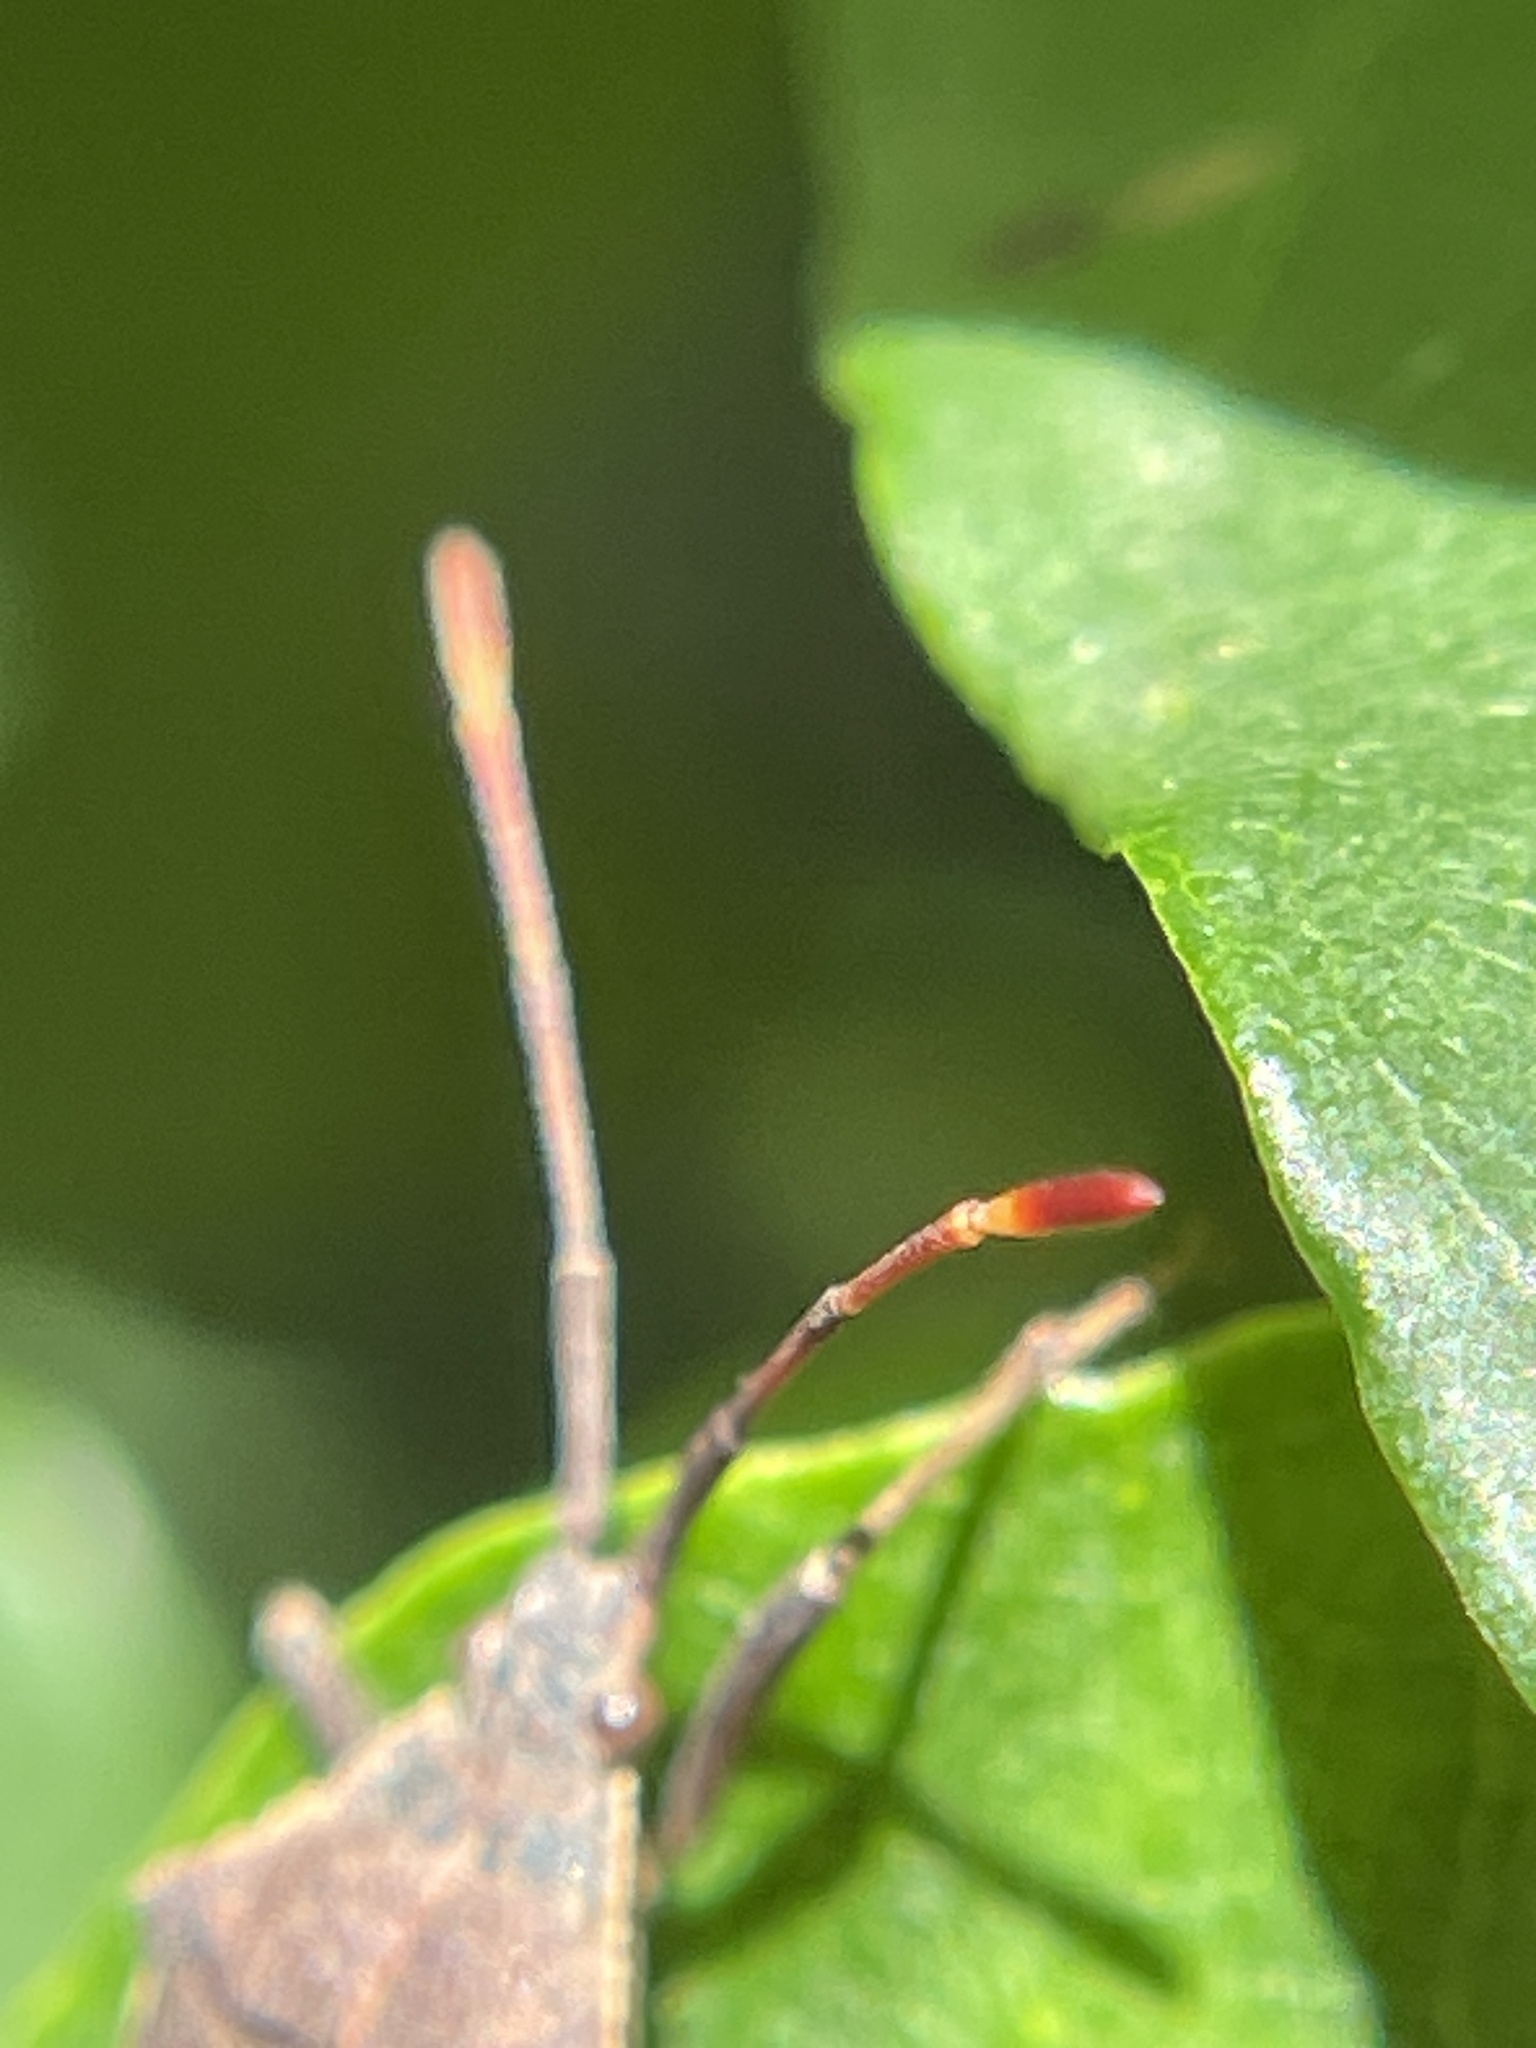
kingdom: Animalia
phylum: Arthropoda
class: Insecta
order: Hemiptera
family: Coreidae
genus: Gelonus
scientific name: Gelonus tasmanicus
